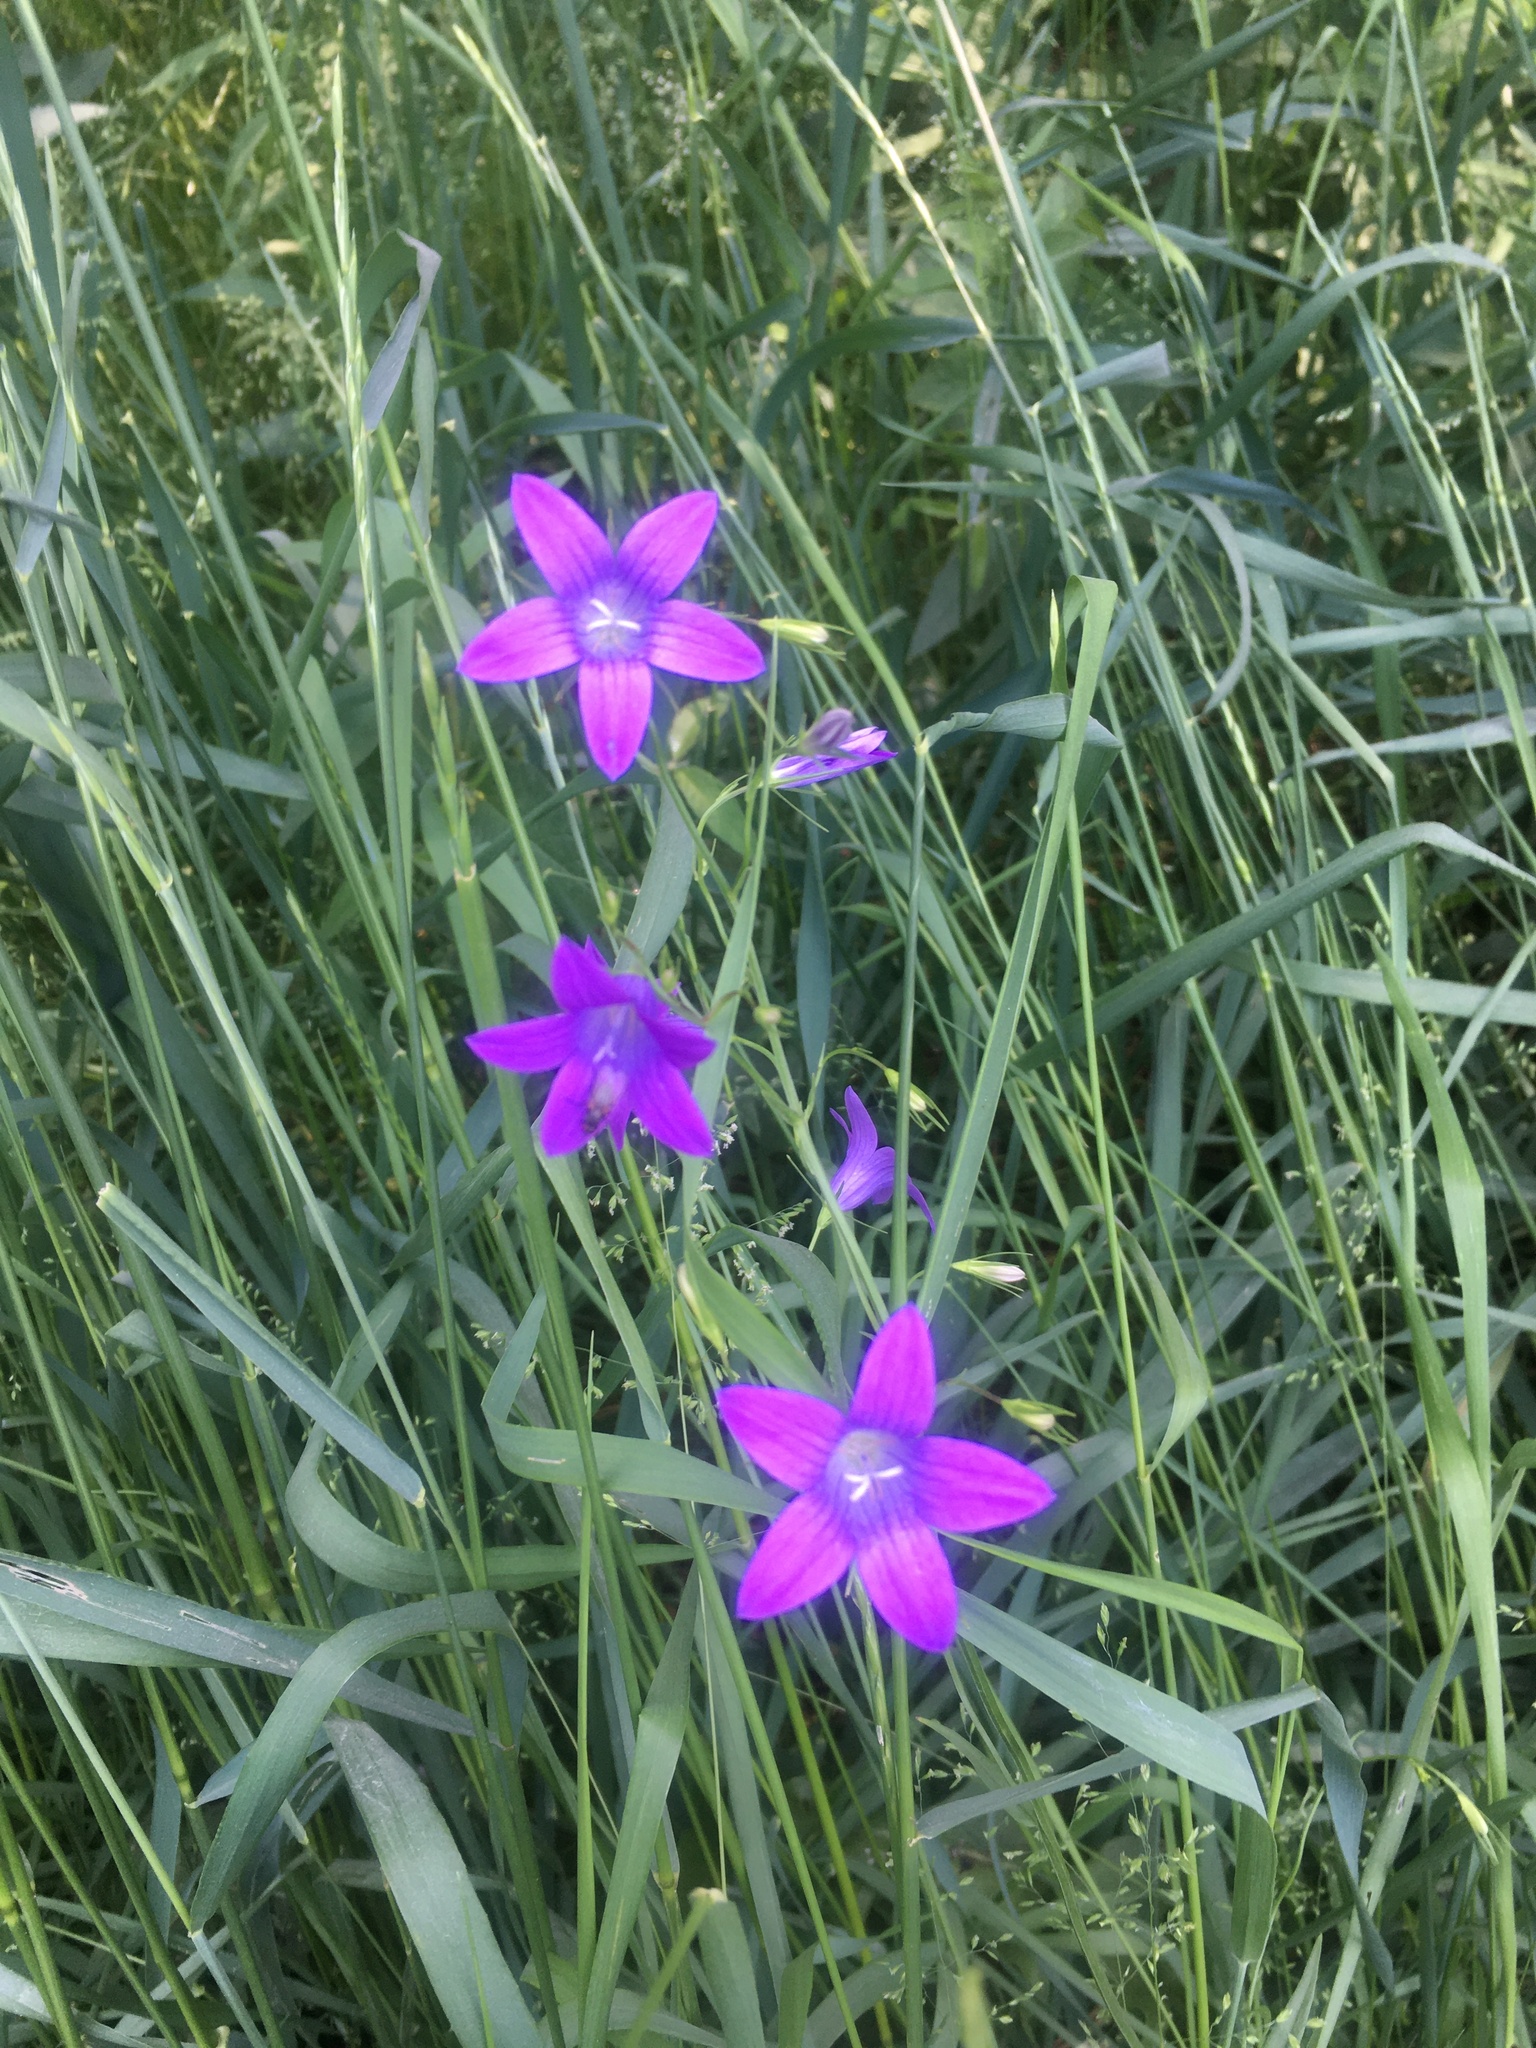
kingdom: Plantae
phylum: Tracheophyta
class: Magnoliopsida
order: Asterales
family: Campanulaceae
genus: Campanula
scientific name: Campanula patula
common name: Spreading bellflower
